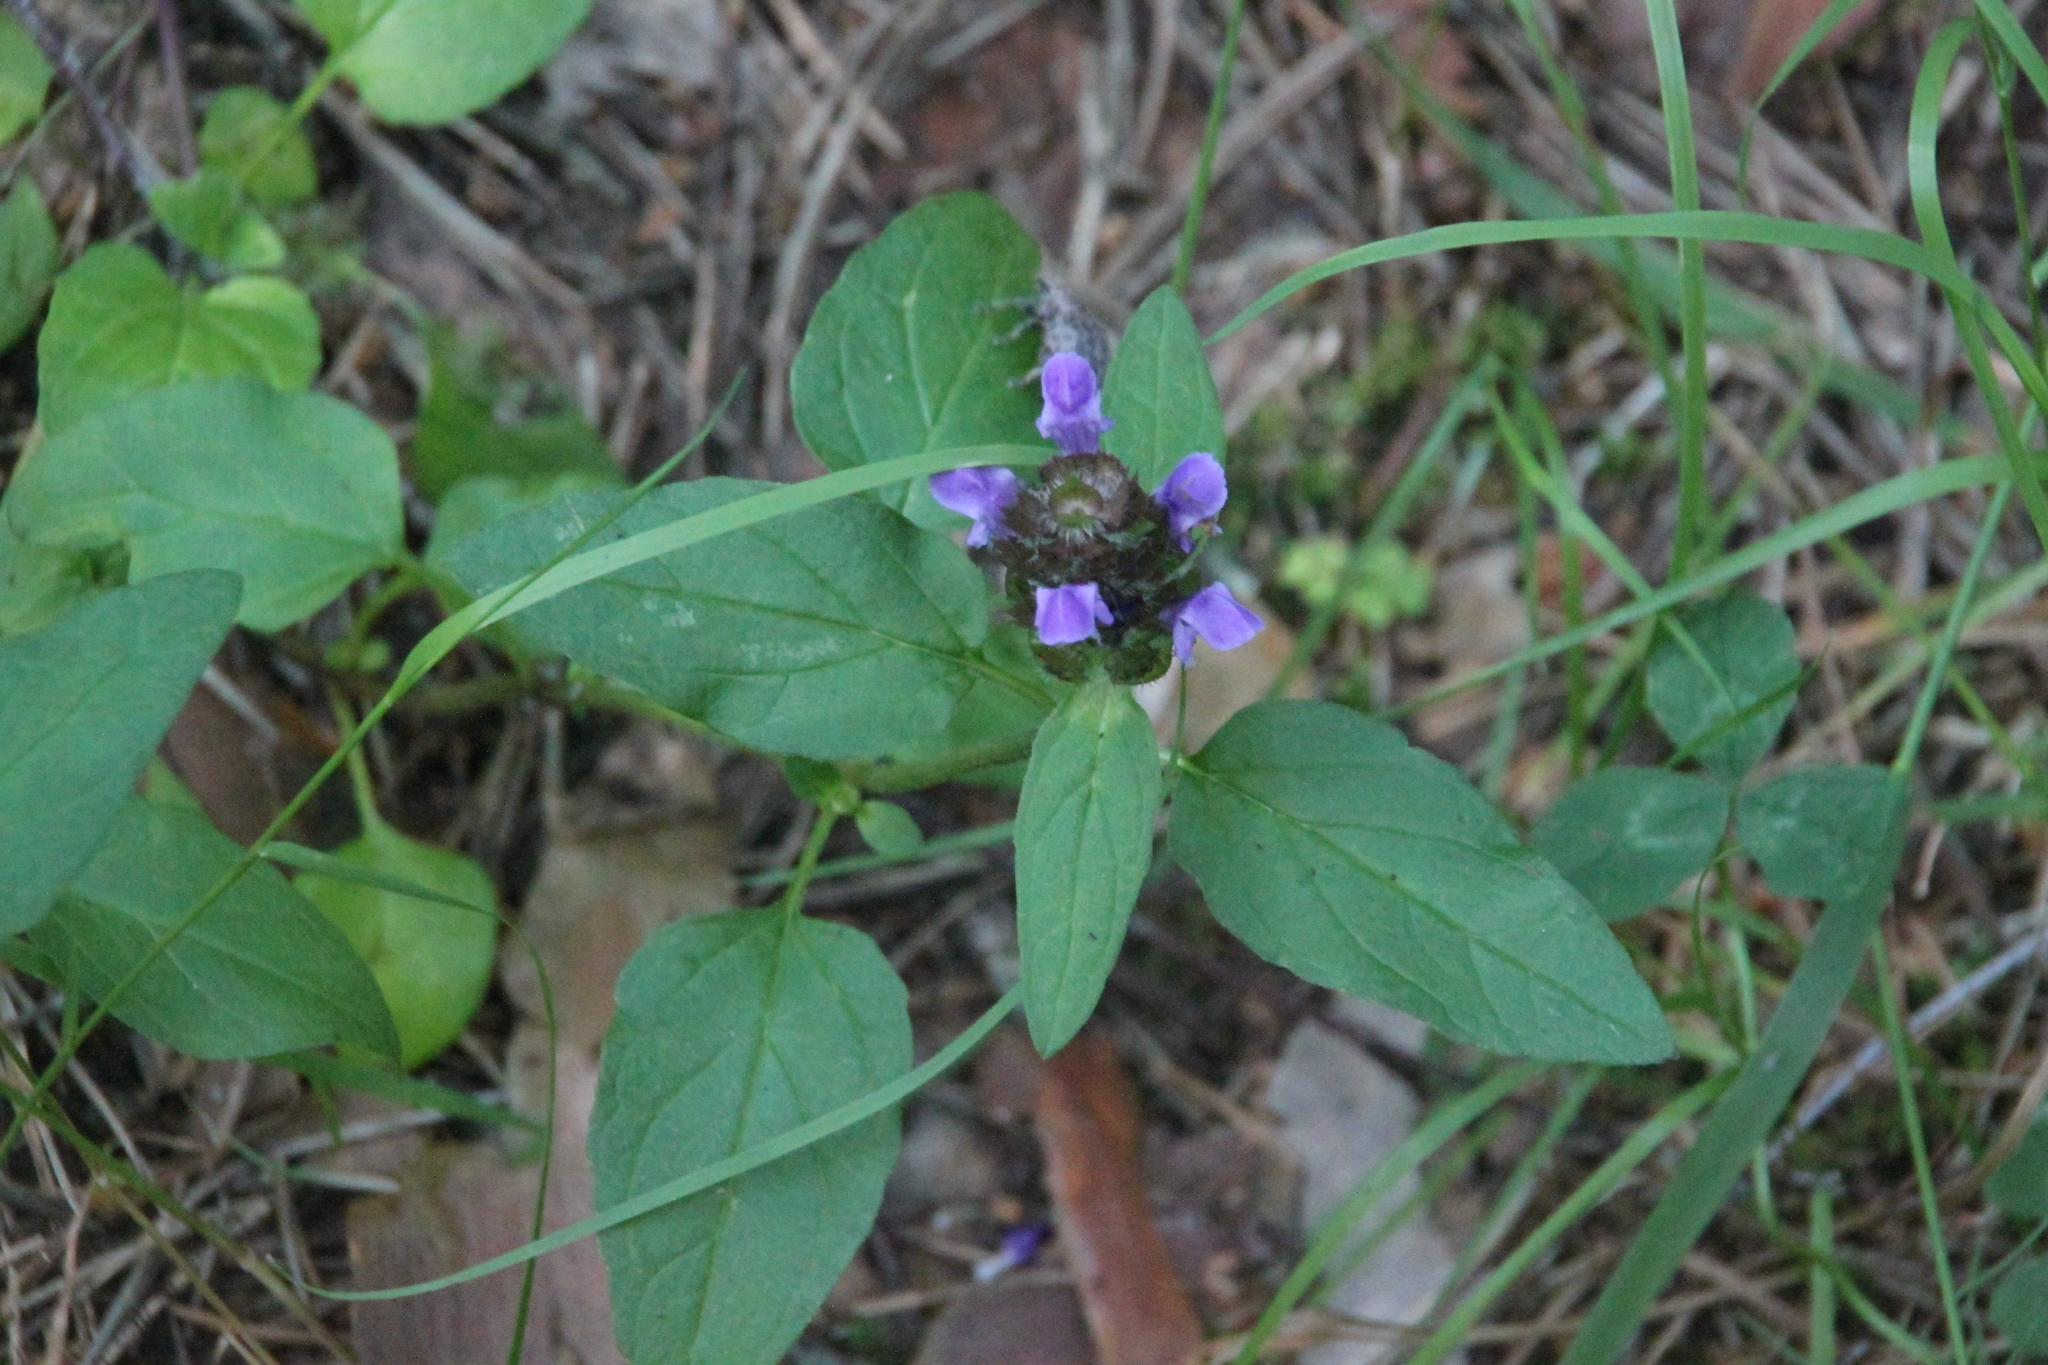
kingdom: Plantae
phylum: Tracheophyta
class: Magnoliopsida
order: Lamiales
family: Lamiaceae
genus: Prunella
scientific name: Prunella vulgaris
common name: Heal-all
